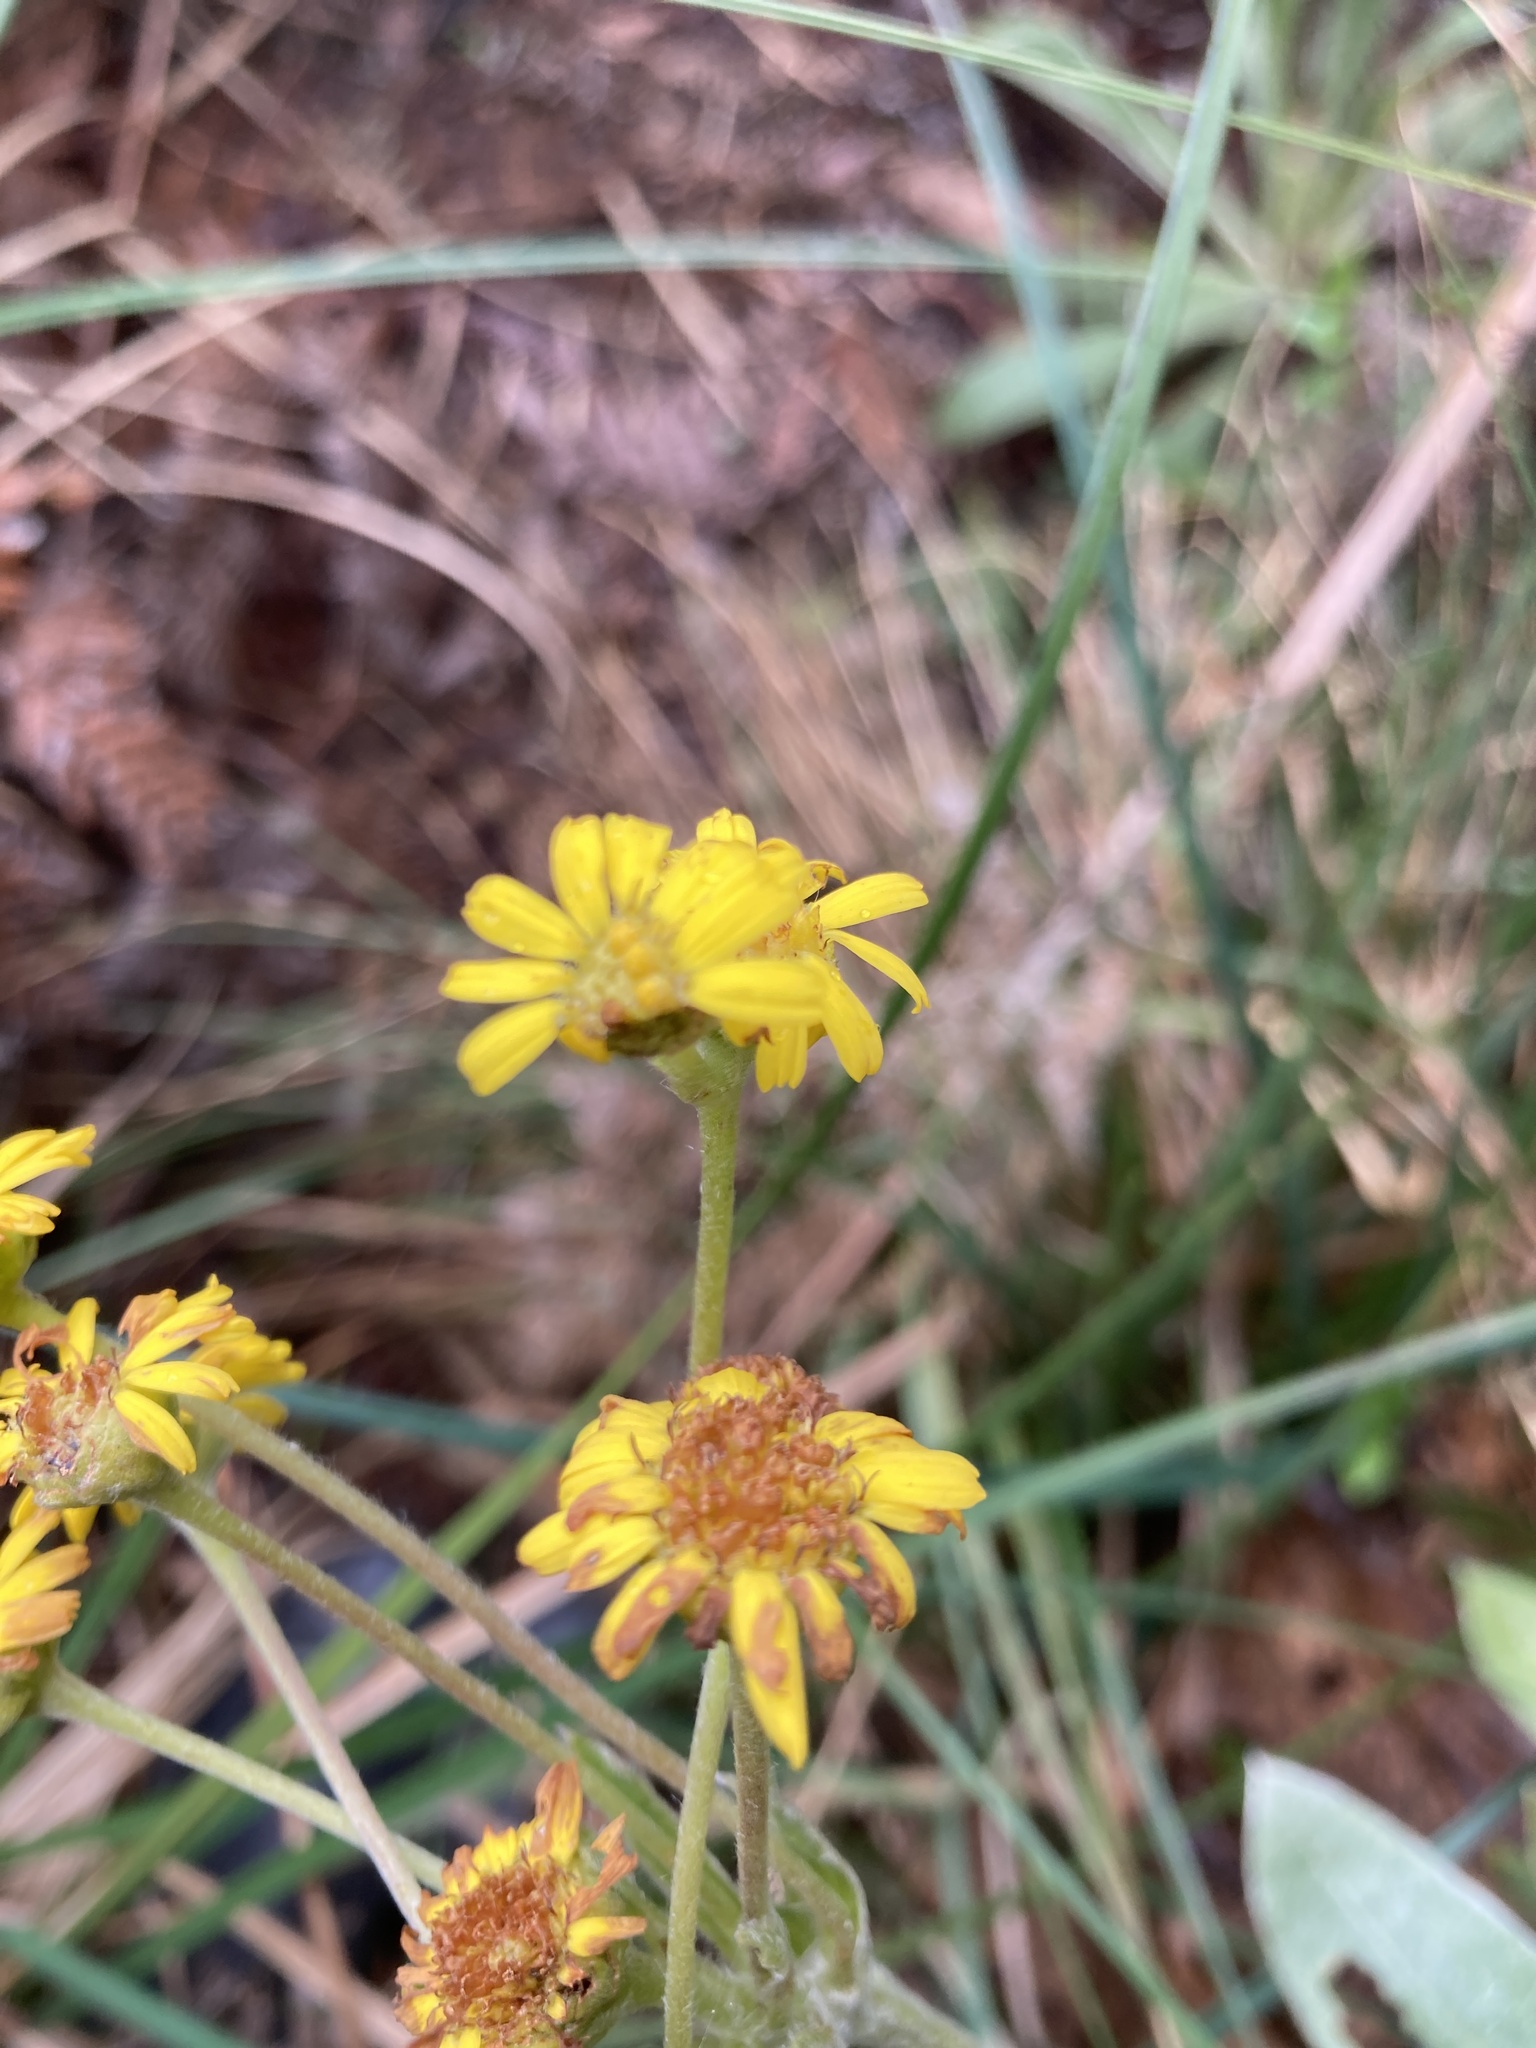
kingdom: Plantae
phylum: Tracheophyta
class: Magnoliopsida
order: Asterales
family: Asteraceae
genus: Espeletia
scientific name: Espeletia corymbosa
